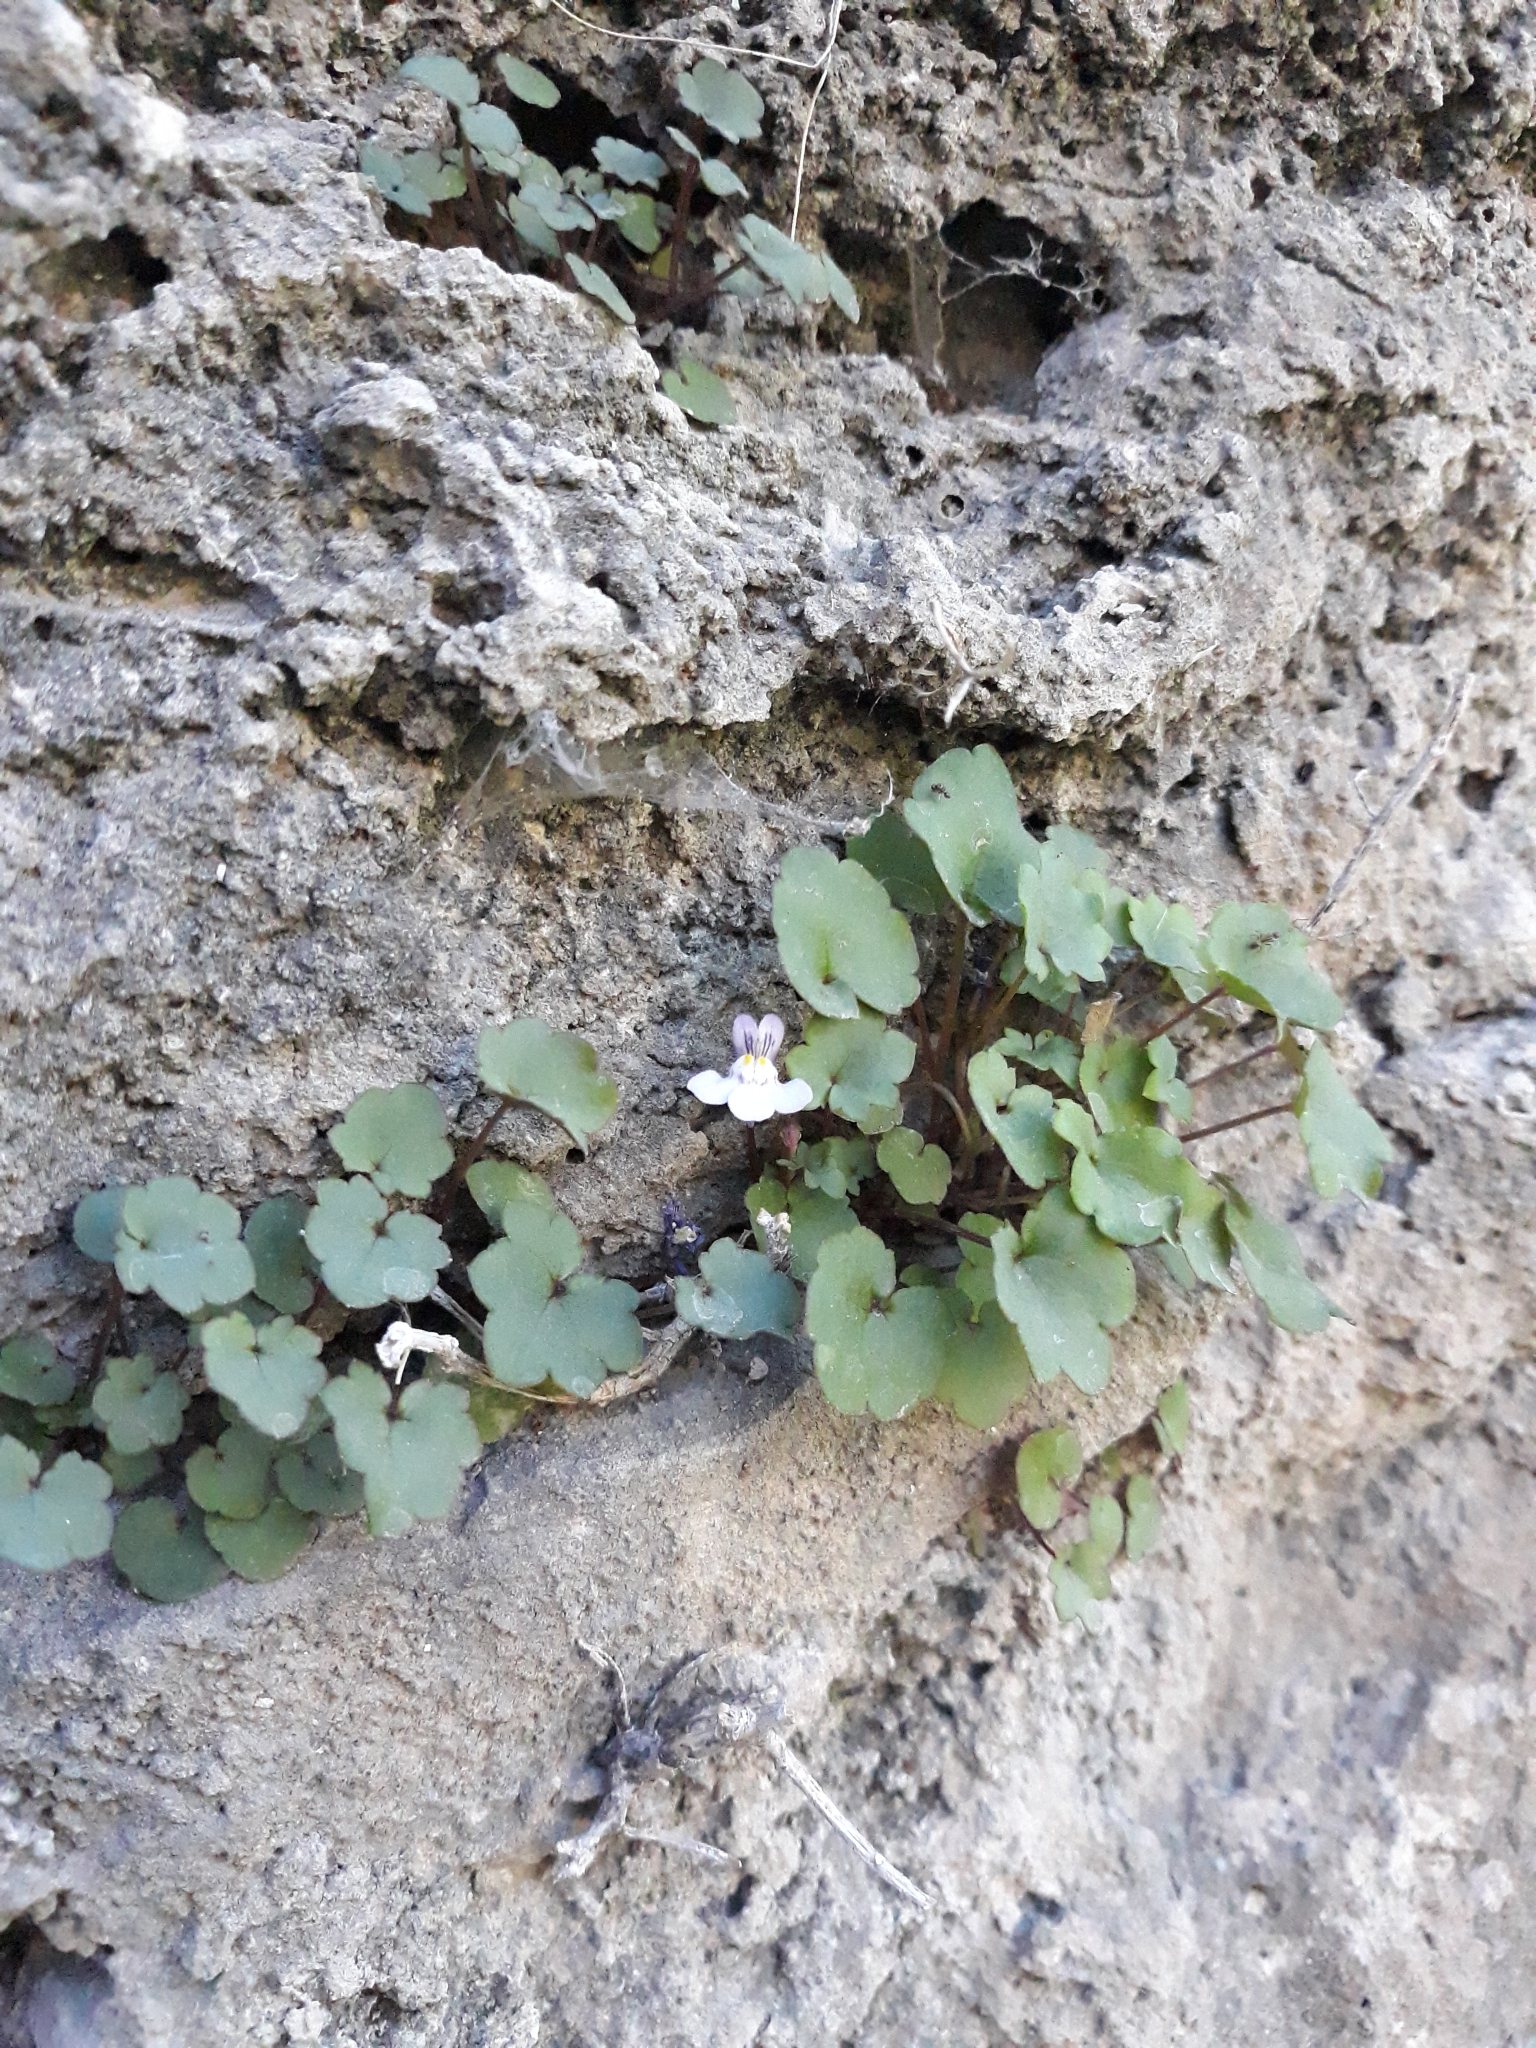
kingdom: Plantae
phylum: Tracheophyta
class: Magnoliopsida
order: Lamiales
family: Plantaginaceae
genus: Cymbalaria
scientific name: Cymbalaria muralis
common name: Ivy-leaved toadflax
